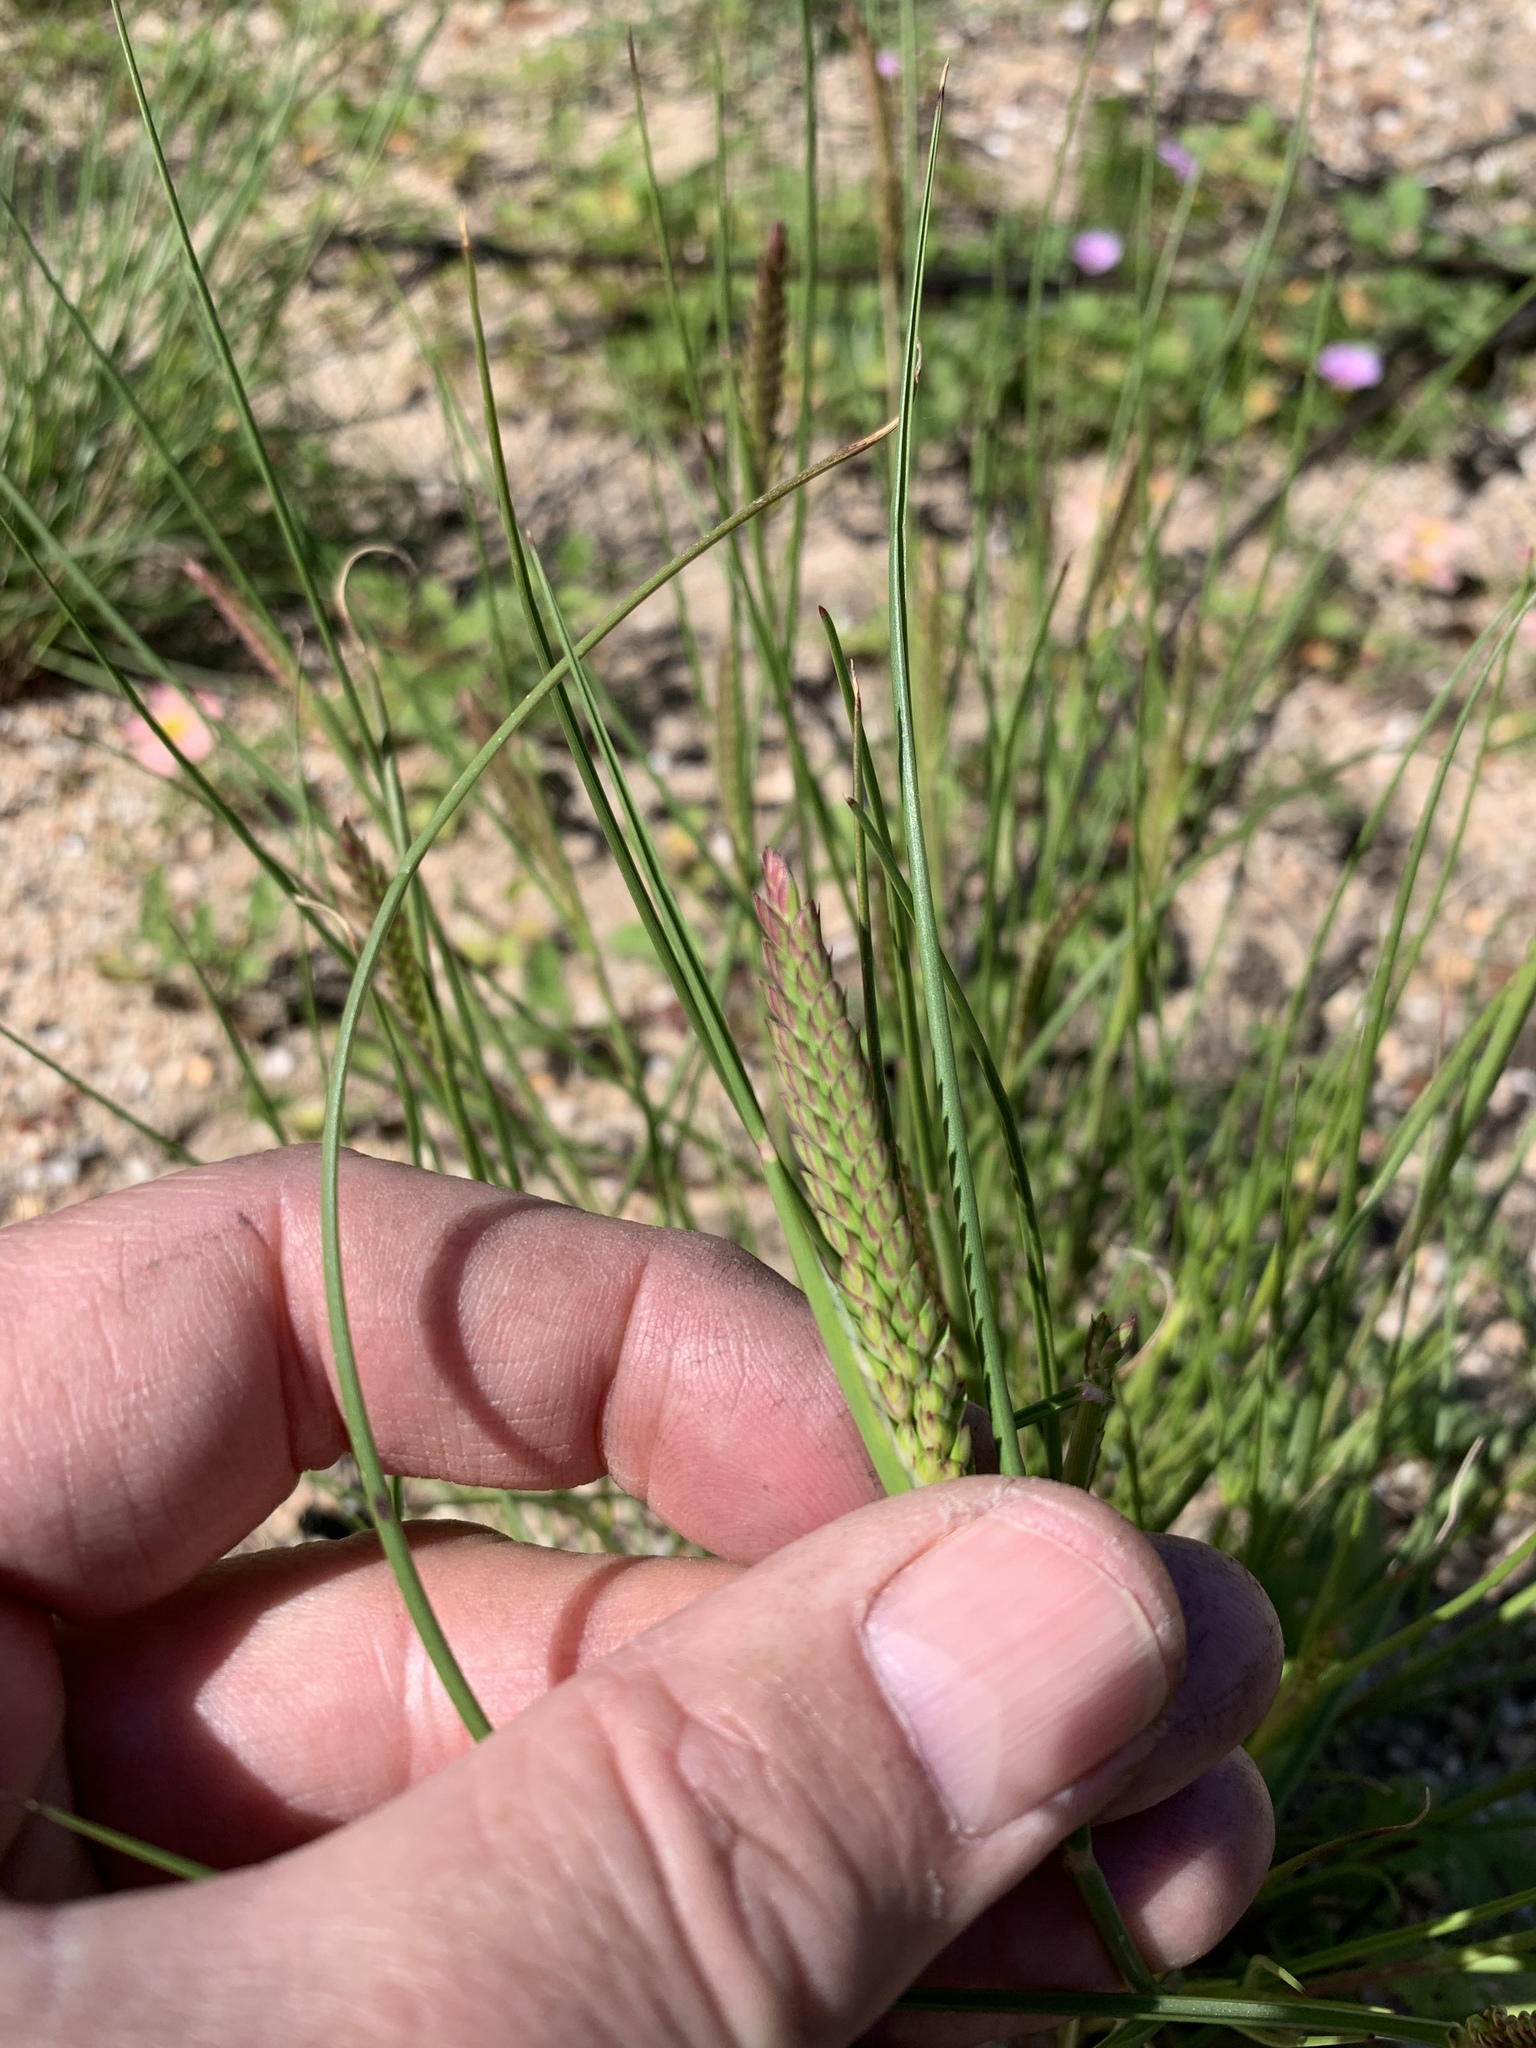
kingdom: Plantae
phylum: Tracheophyta
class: Liliopsida
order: Poales
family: Poaceae
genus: Tribolium
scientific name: Tribolium uniolae
